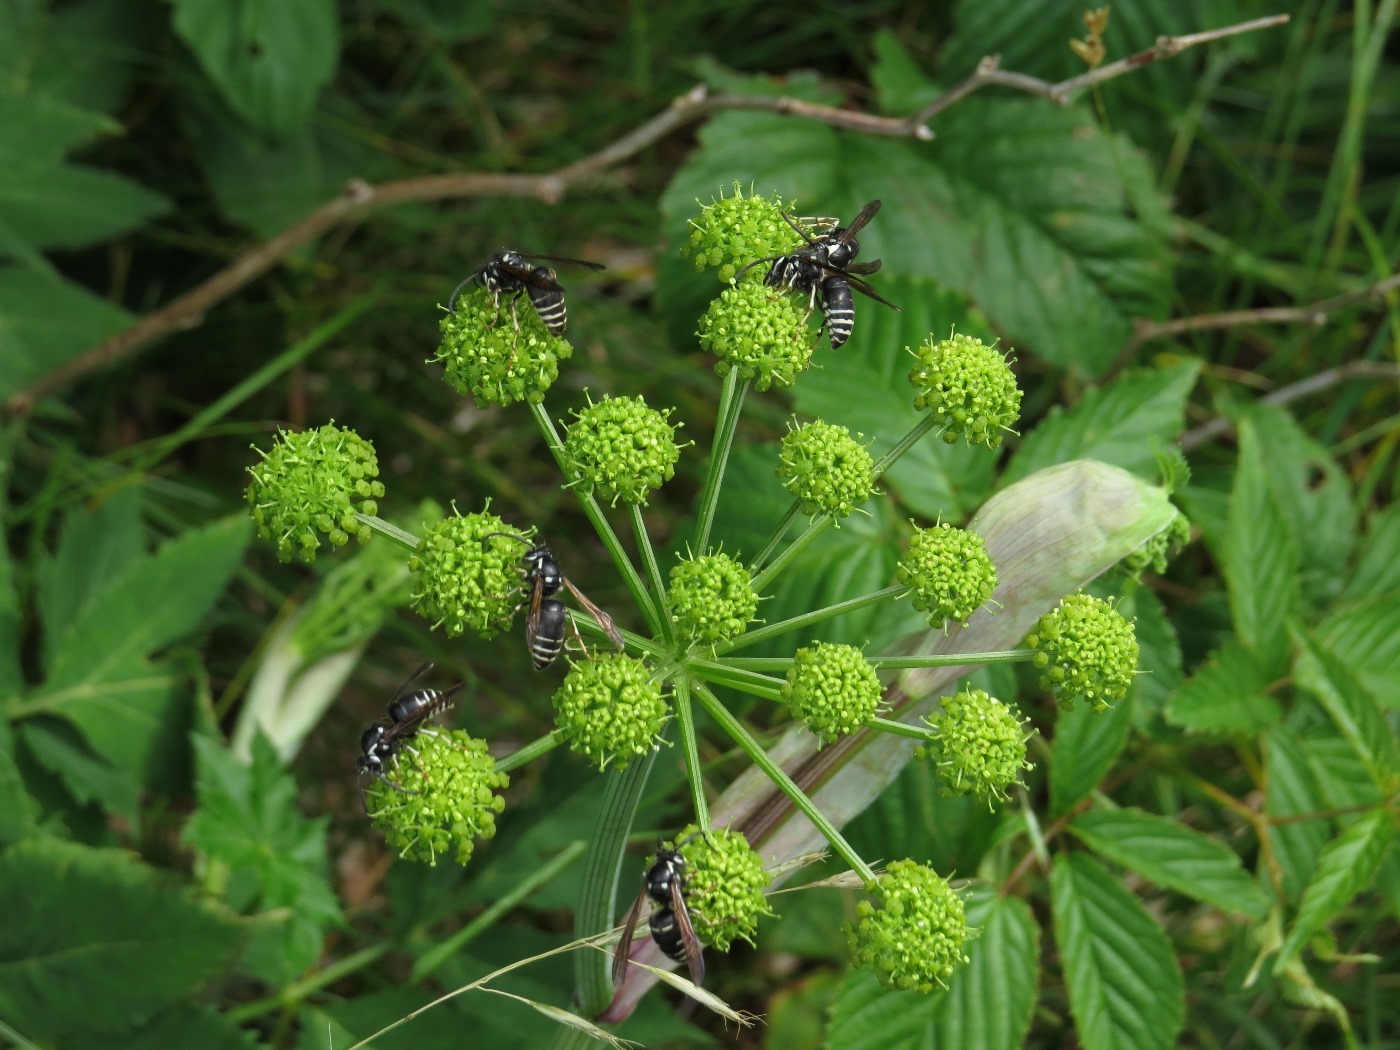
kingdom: Plantae
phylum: Tracheophyta
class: Magnoliopsida
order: Apiales
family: Apiaceae
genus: Angelica
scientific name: Angelica triquinata
